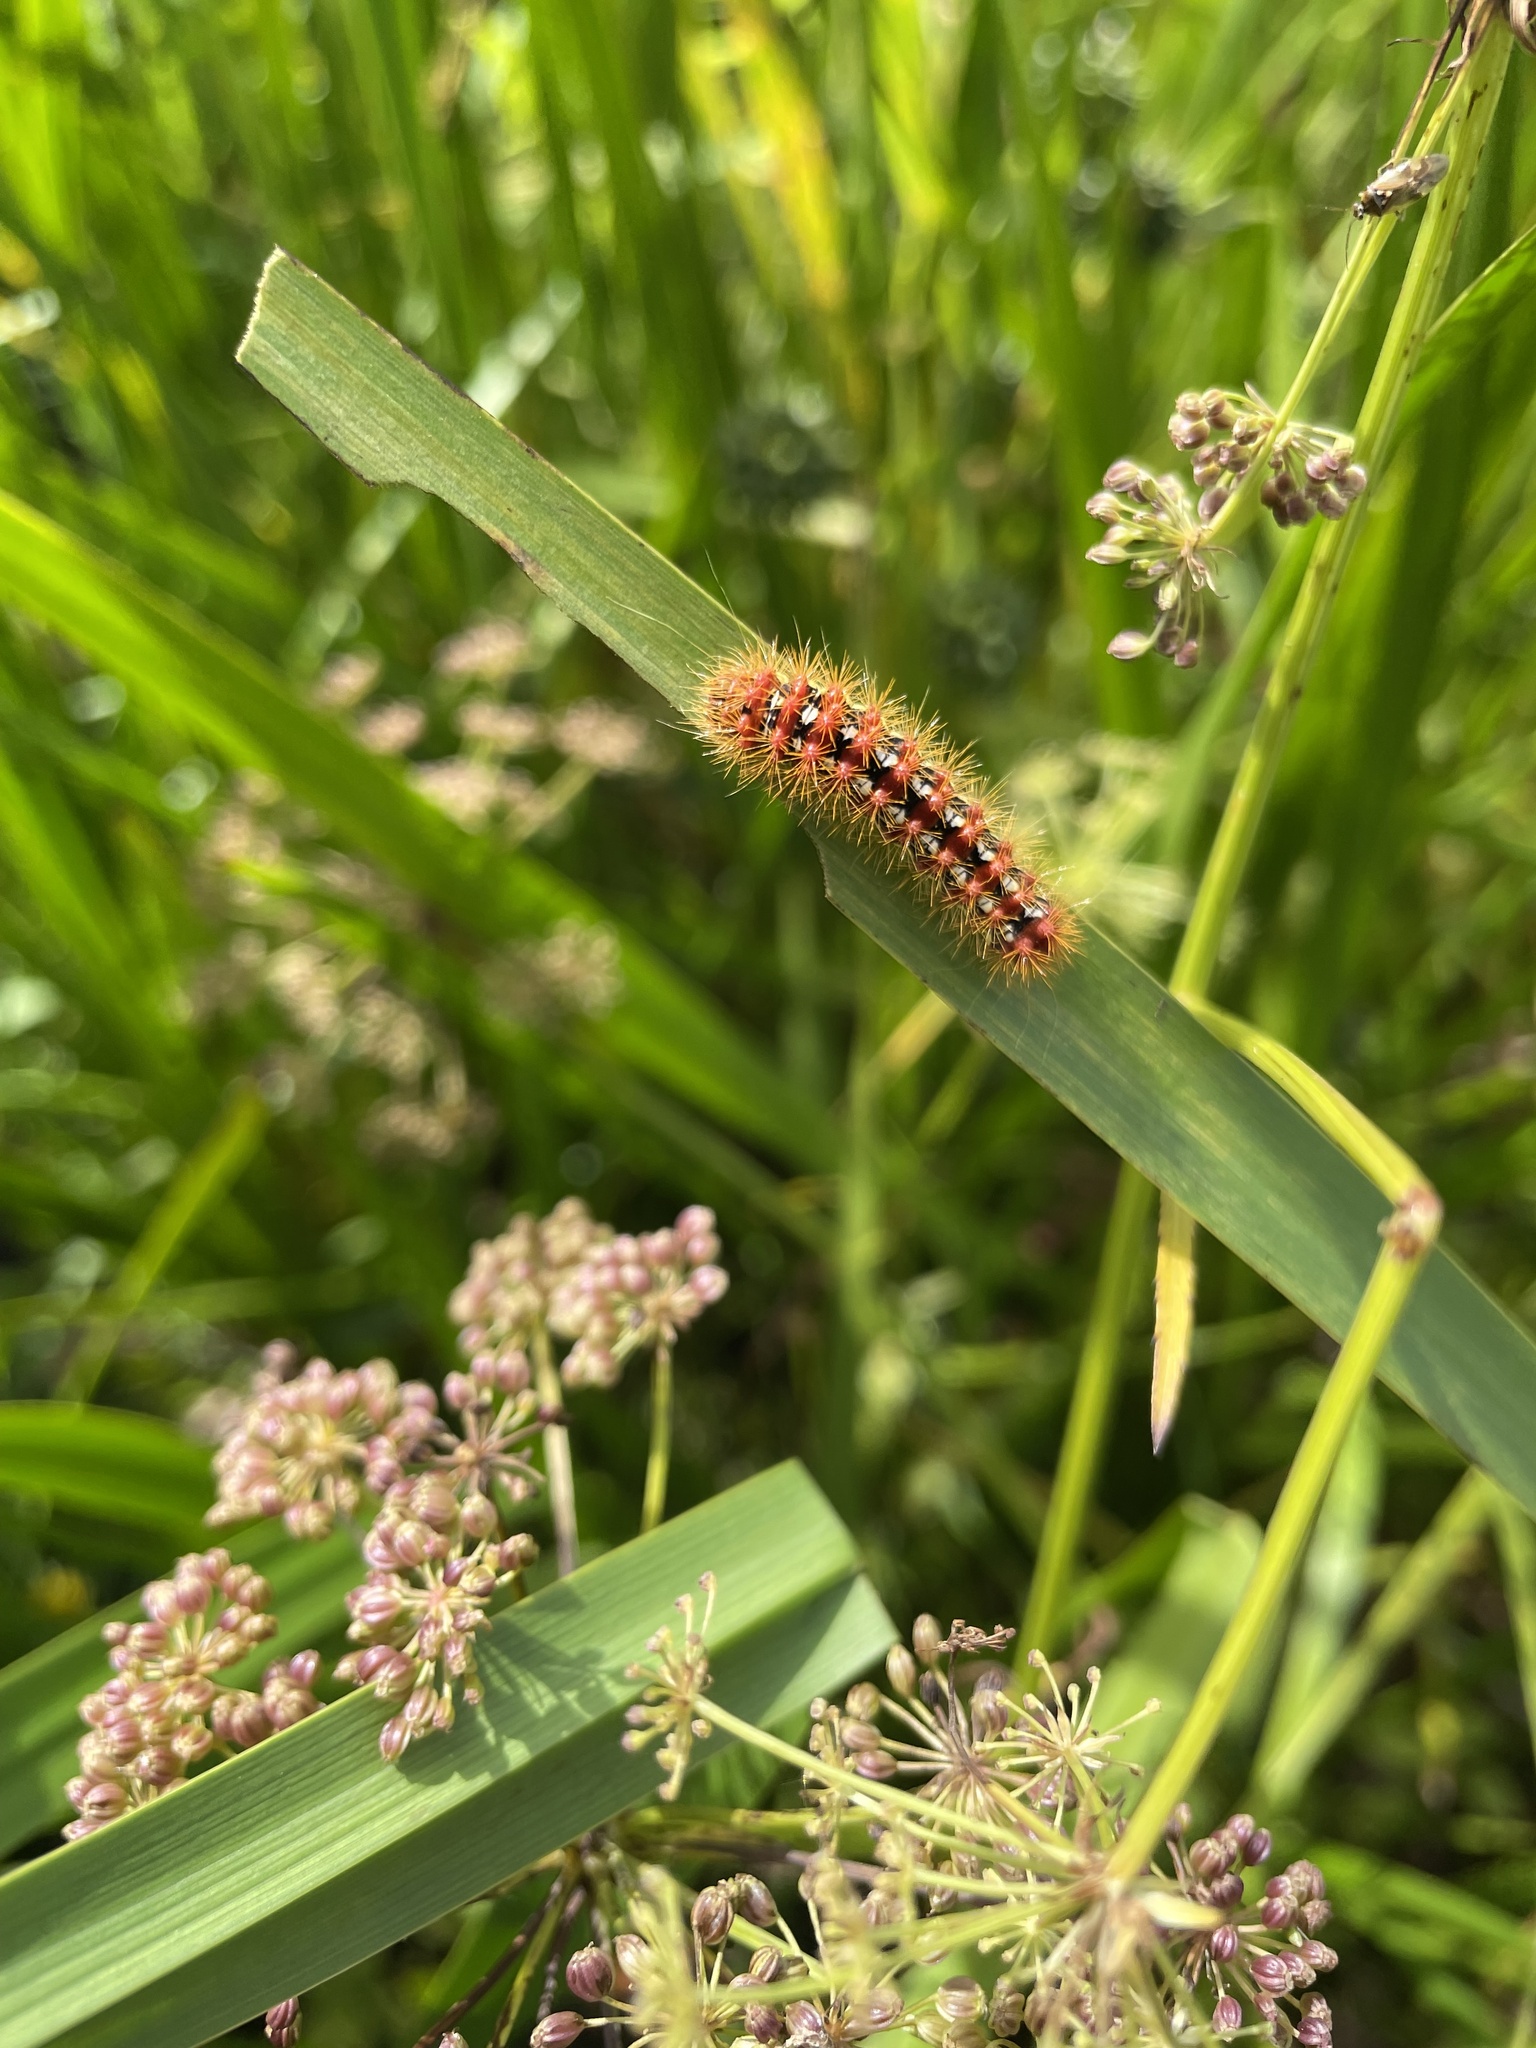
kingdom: Animalia
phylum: Arthropoda
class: Insecta
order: Lepidoptera
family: Noctuidae
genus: Acronicta
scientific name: Acronicta oblinita
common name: Smeared dagger
